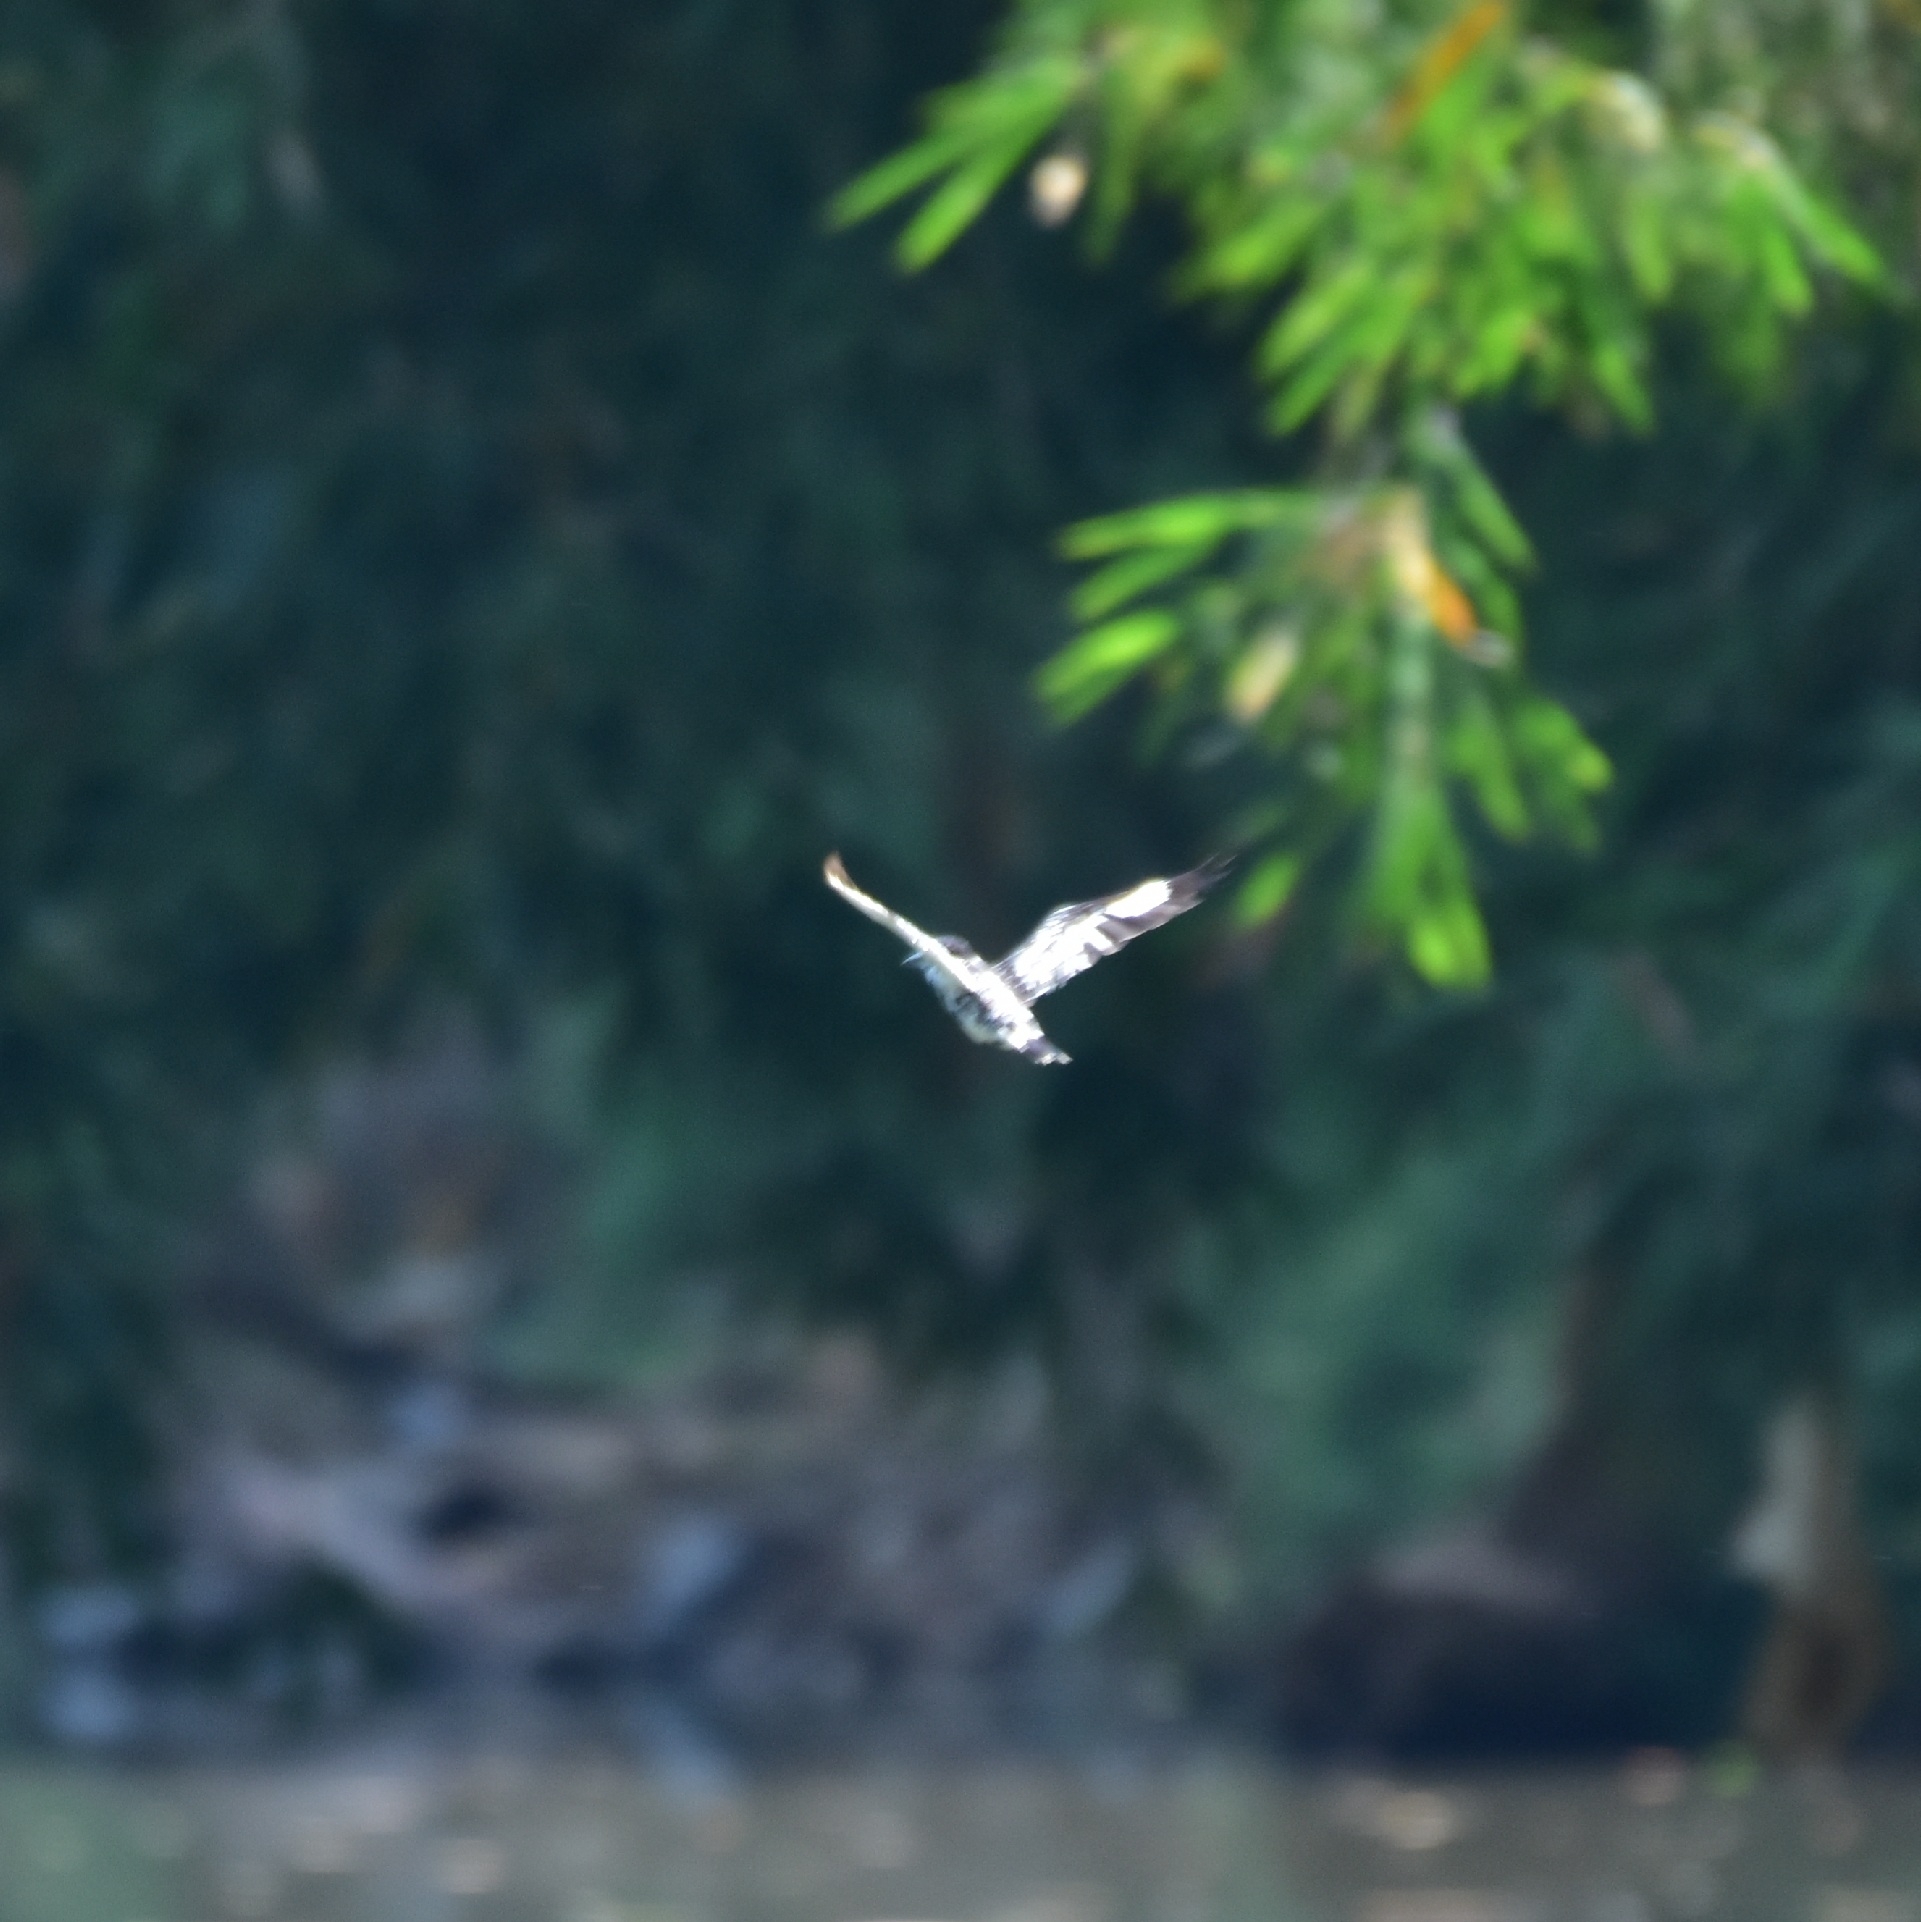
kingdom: Animalia
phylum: Chordata
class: Aves
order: Coraciiformes
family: Alcedinidae
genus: Ceryle
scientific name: Ceryle rudis
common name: Pied kingfisher
